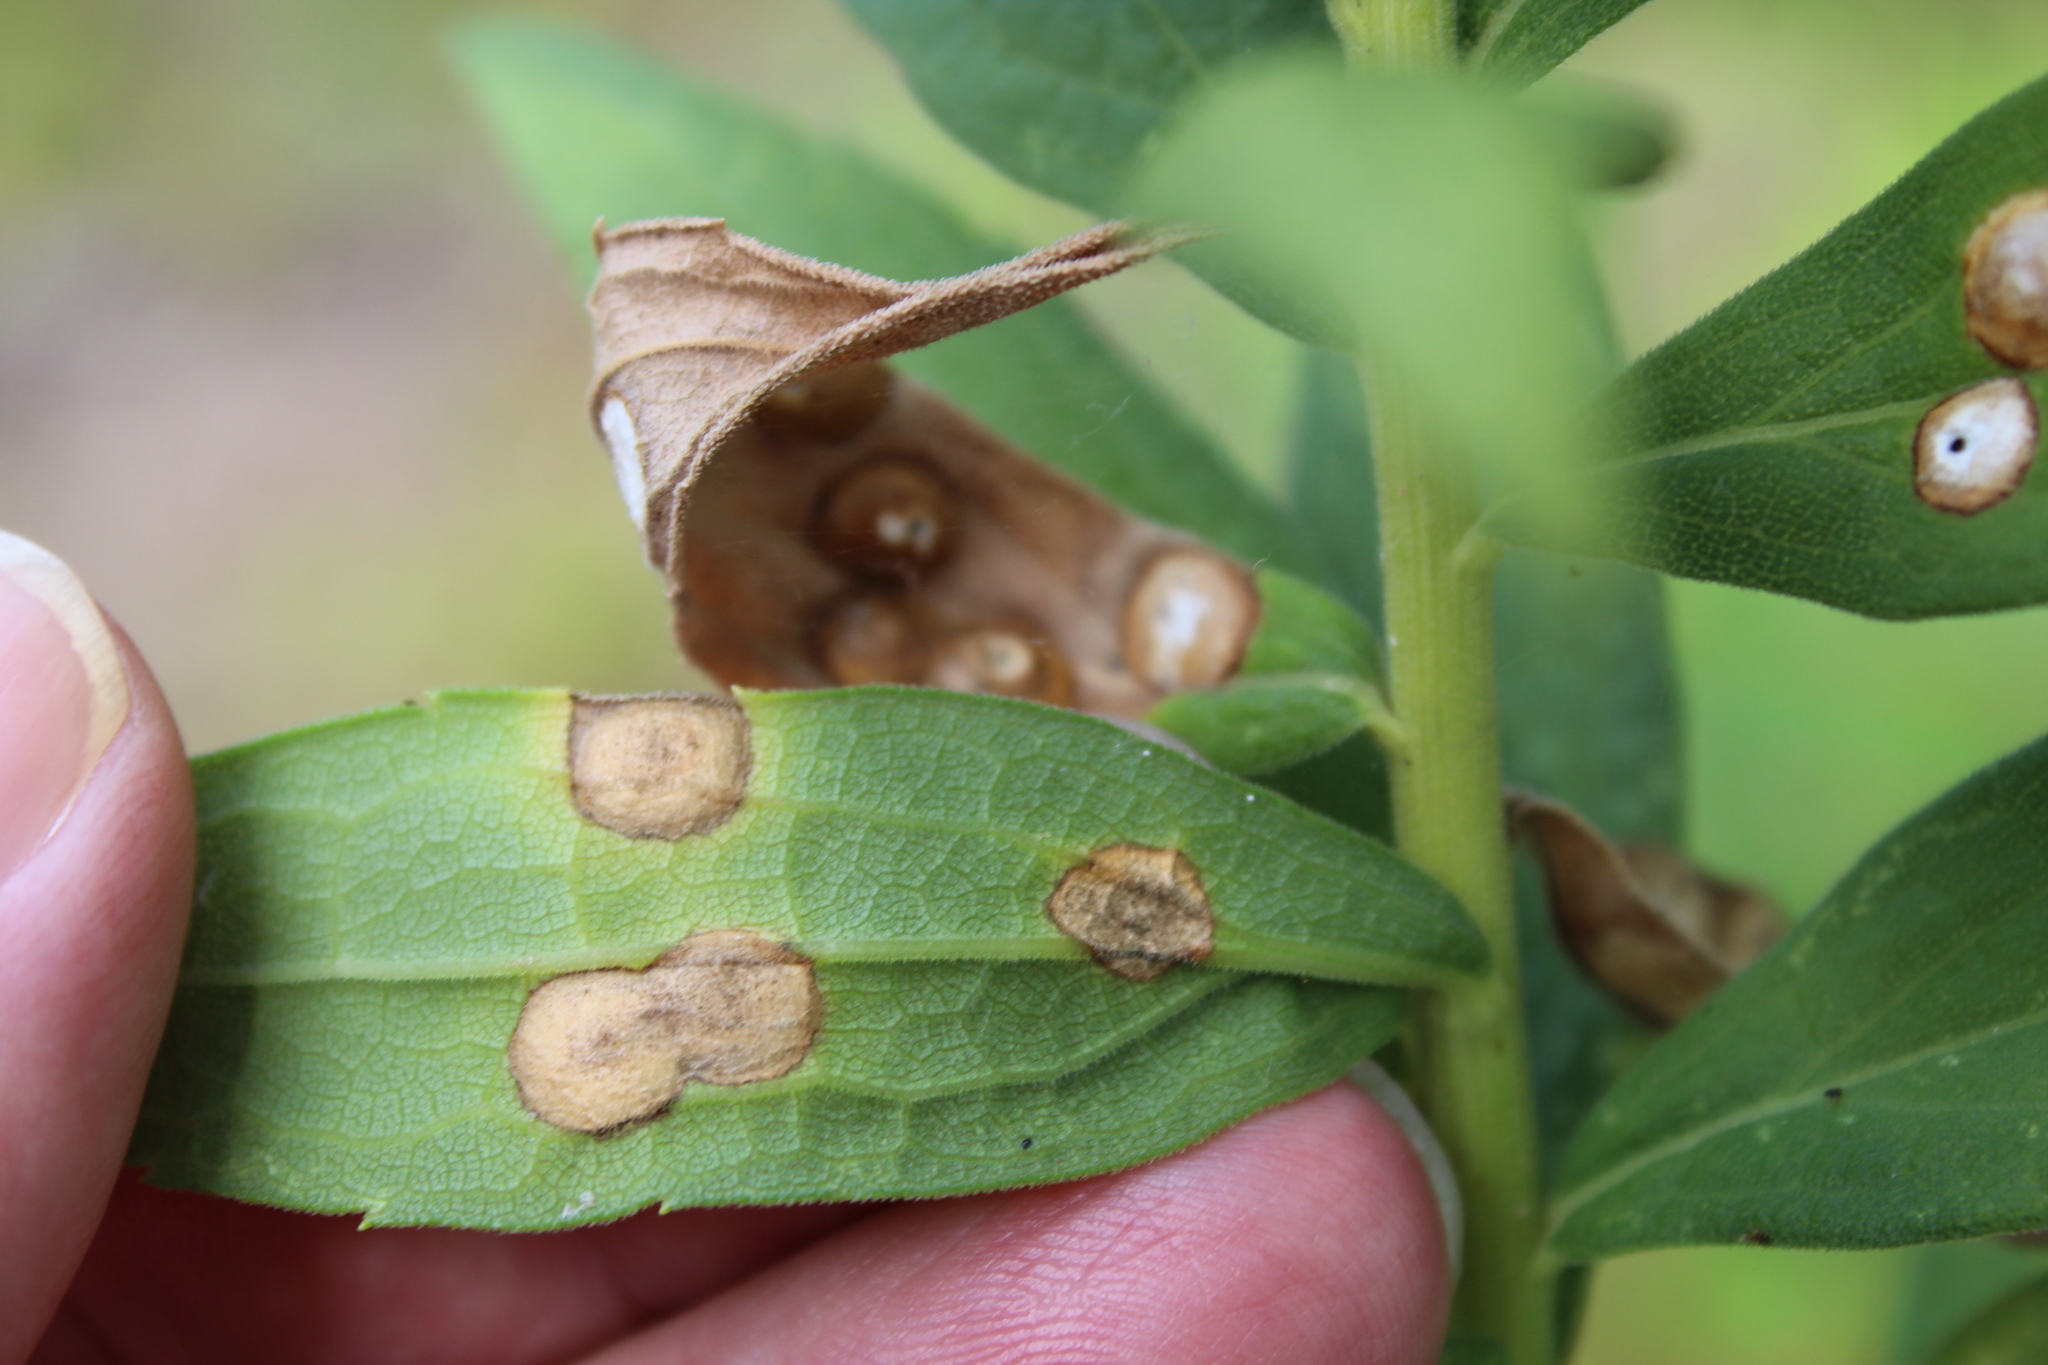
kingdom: Animalia
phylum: Arthropoda
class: Insecta
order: Diptera
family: Cecidomyiidae
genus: Asteromyia
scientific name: Asteromyia carbonifera
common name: Carbonifera goldenrod gall midge
